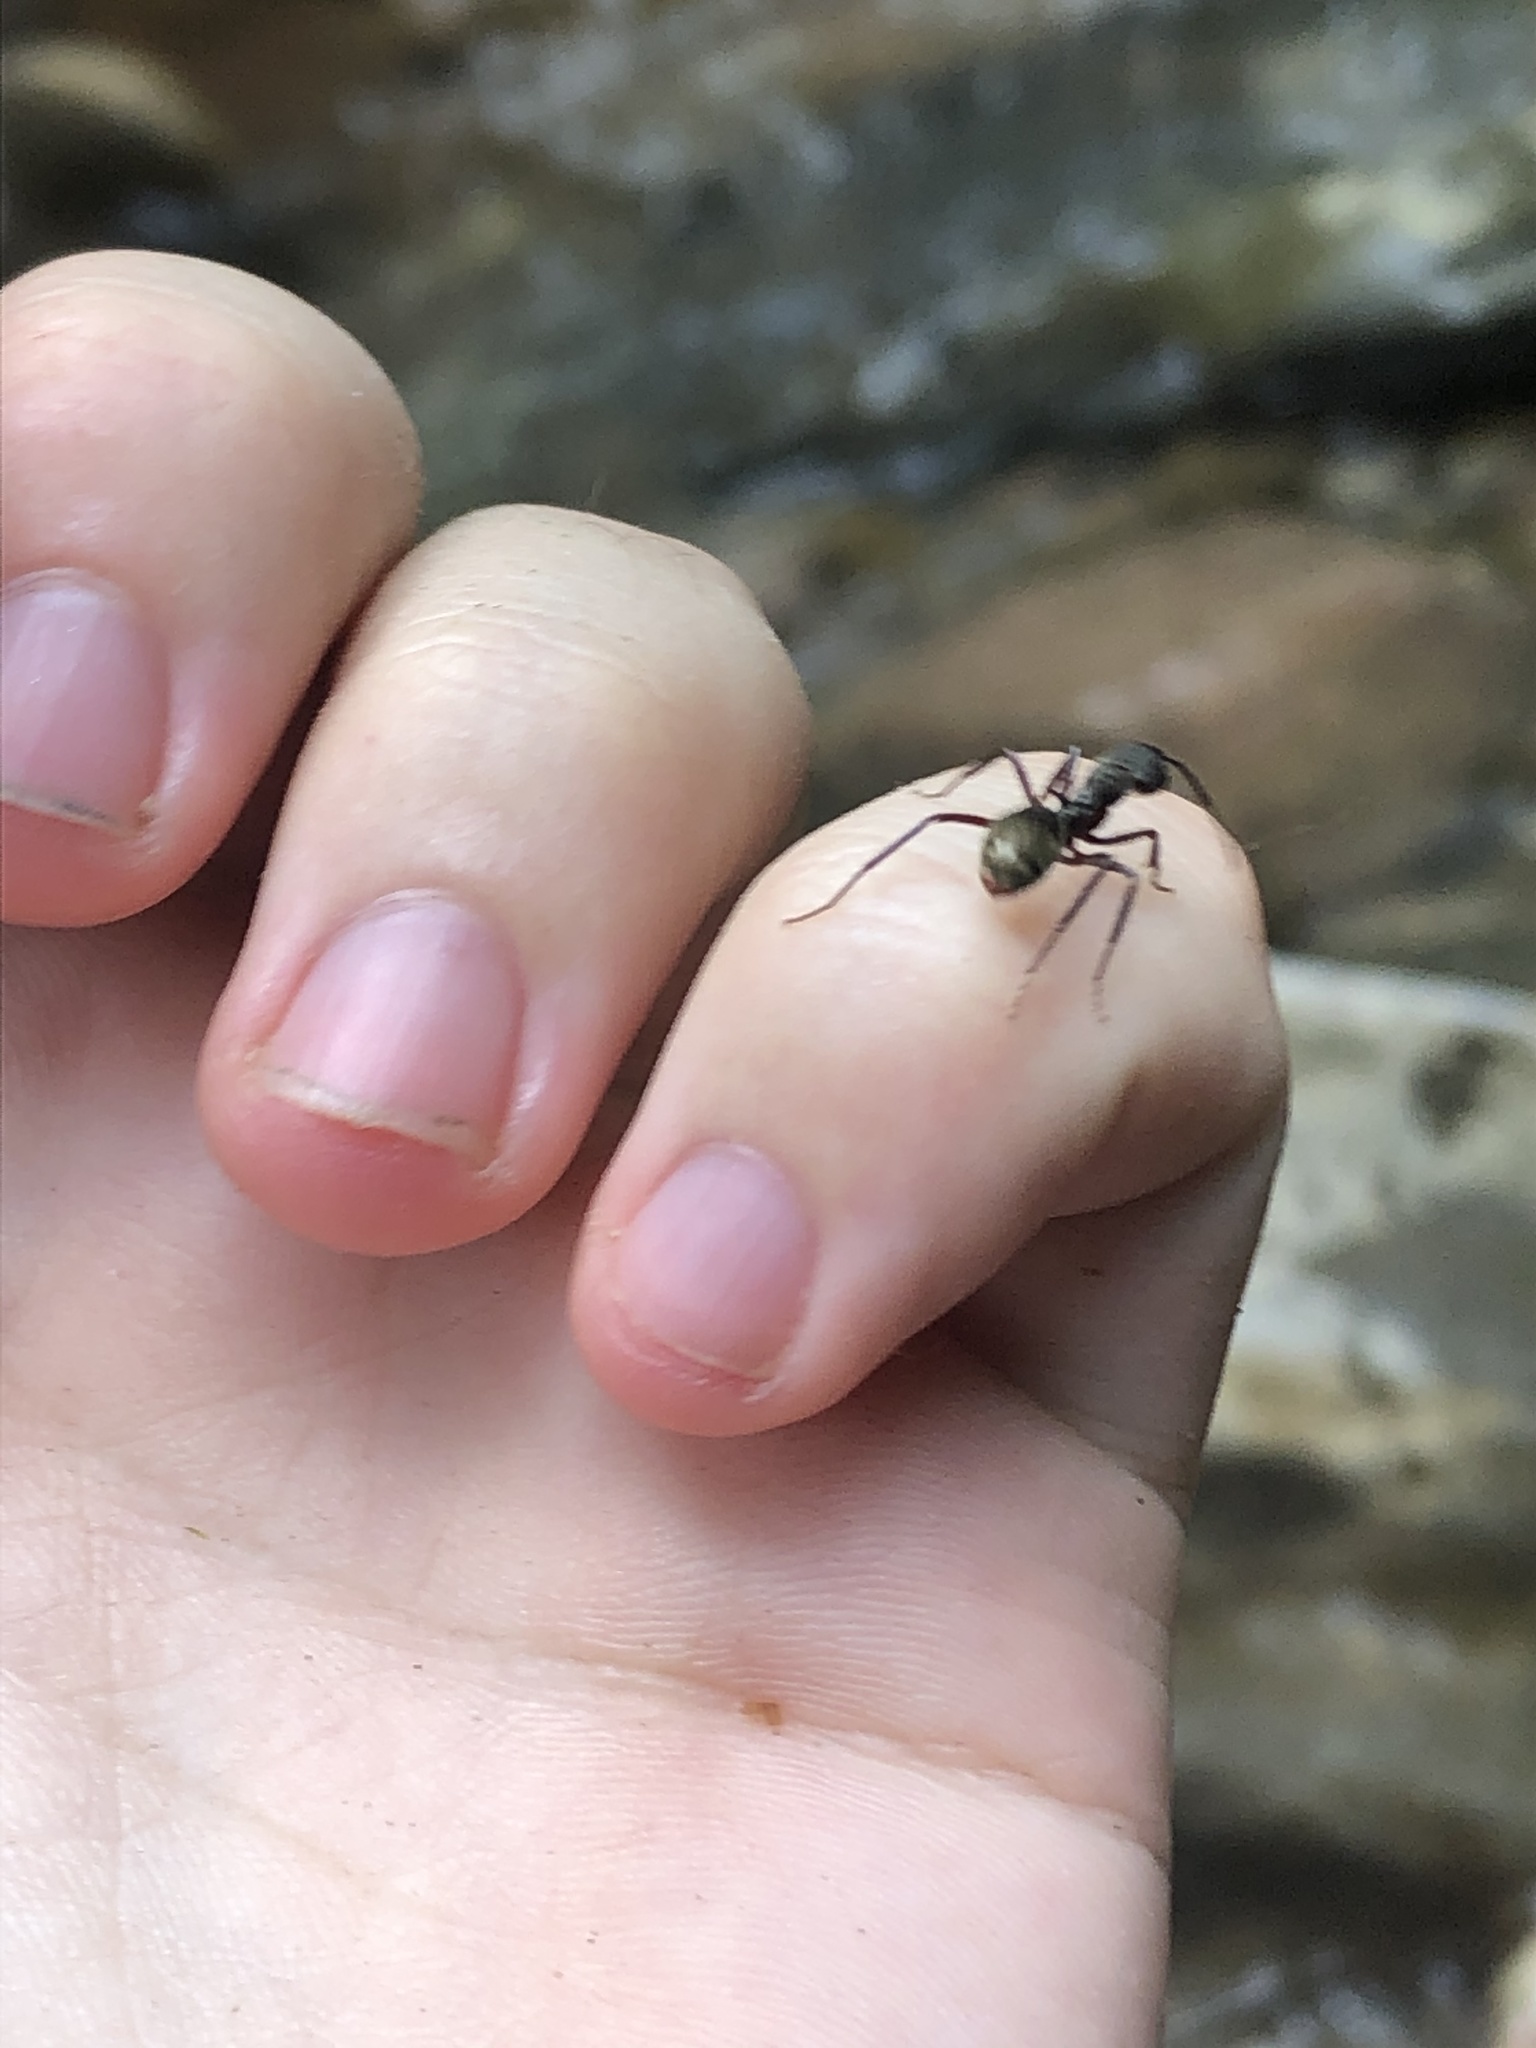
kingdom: Animalia
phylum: Arthropoda
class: Insecta
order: Hymenoptera
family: Formicidae
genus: Dolichoderus
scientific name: Dolichoderus decollatus
